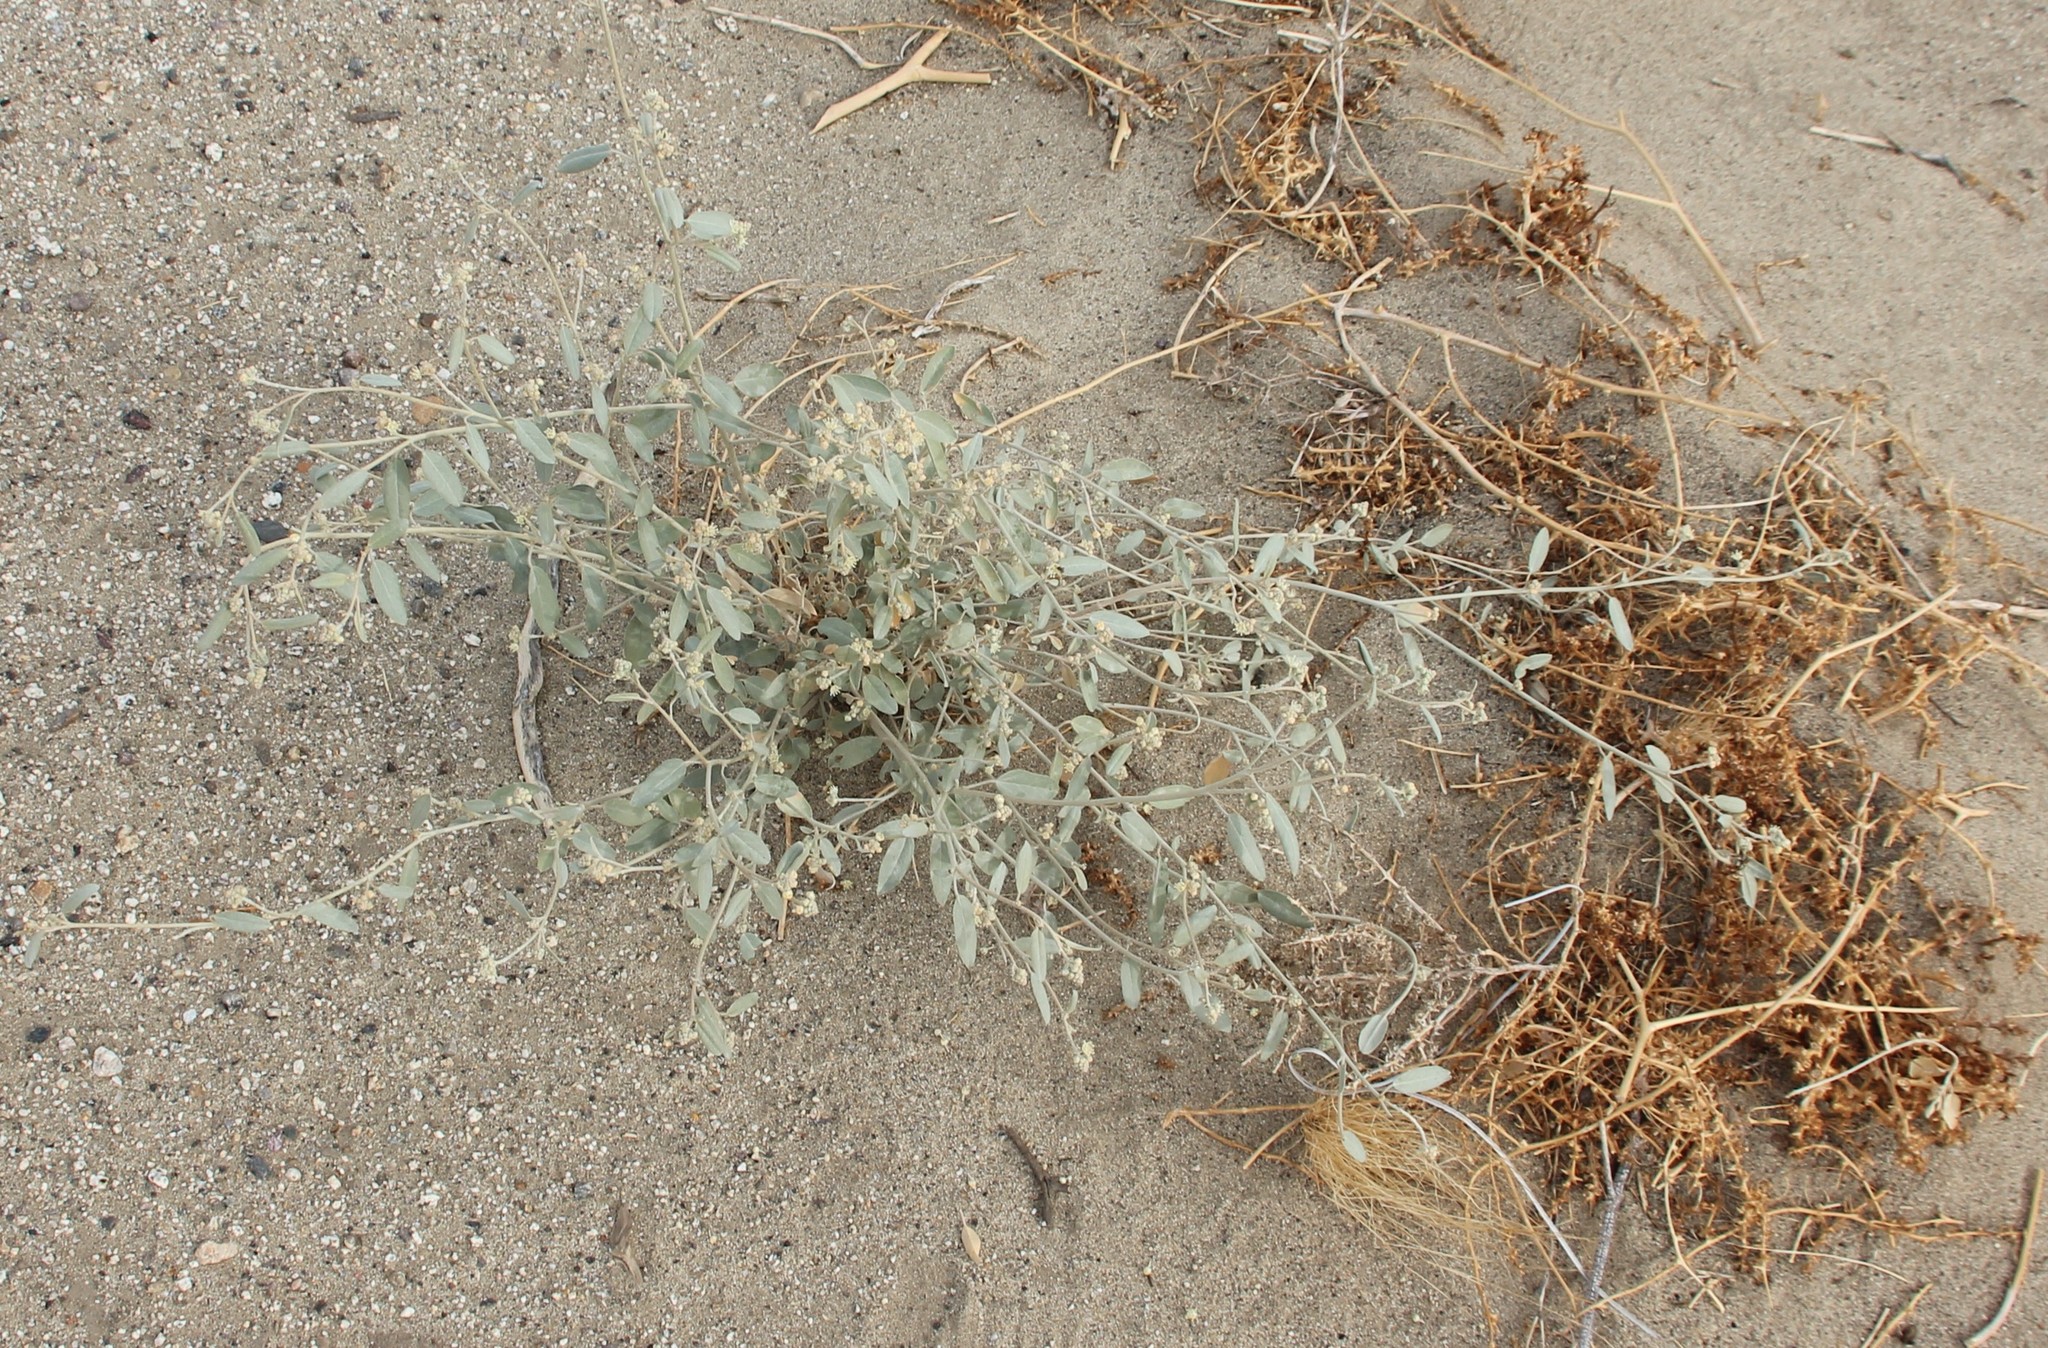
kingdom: Plantae
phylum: Tracheophyta
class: Magnoliopsida
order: Malpighiales
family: Euphorbiaceae
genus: Croton
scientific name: Croton californicus
